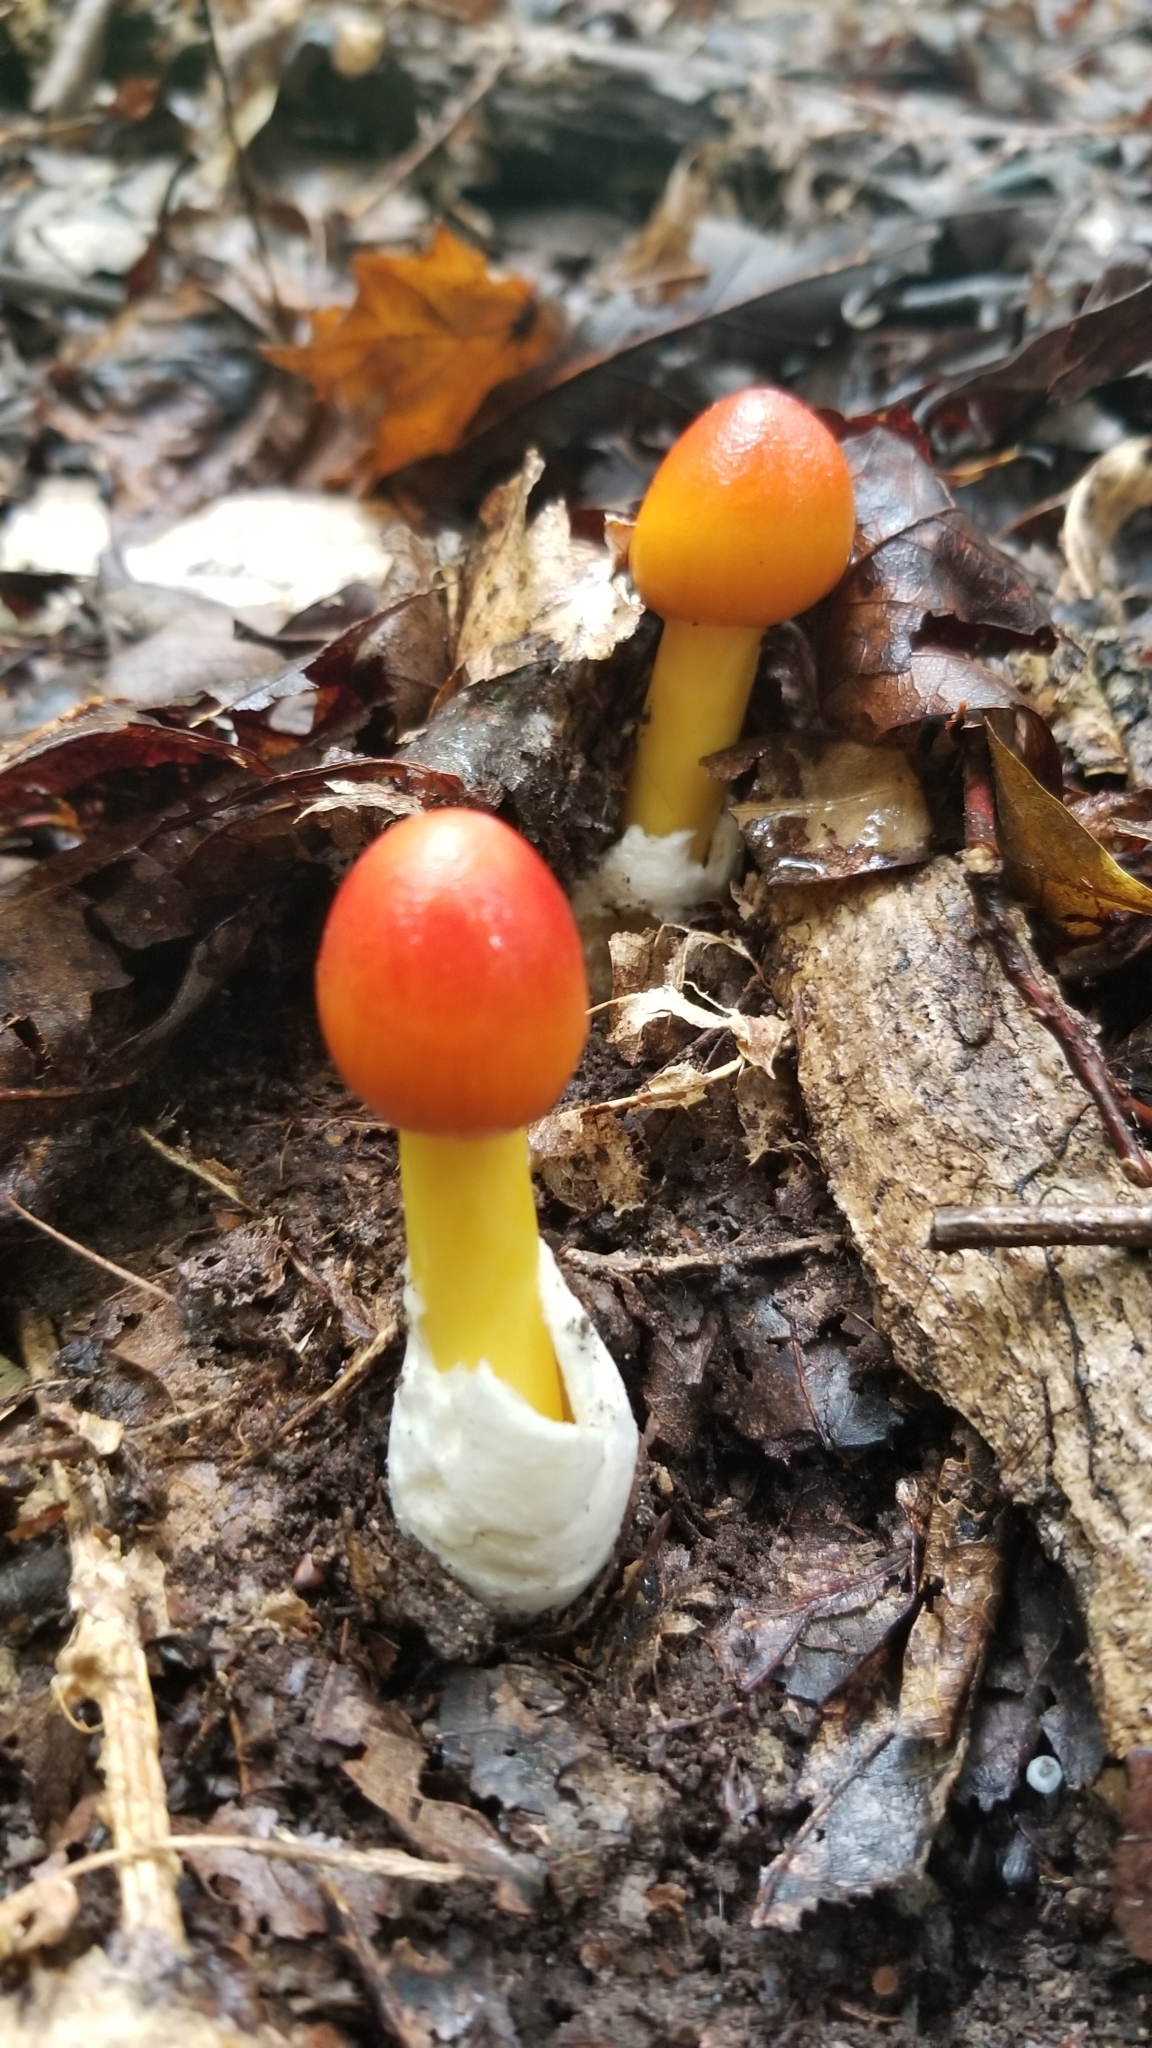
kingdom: Fungi
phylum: Basidiomycota
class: Agaricomycetes
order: Agaricales
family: Amanitaceae
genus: Amanita
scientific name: Amanita jacksonii
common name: Jackson's slender caesar
